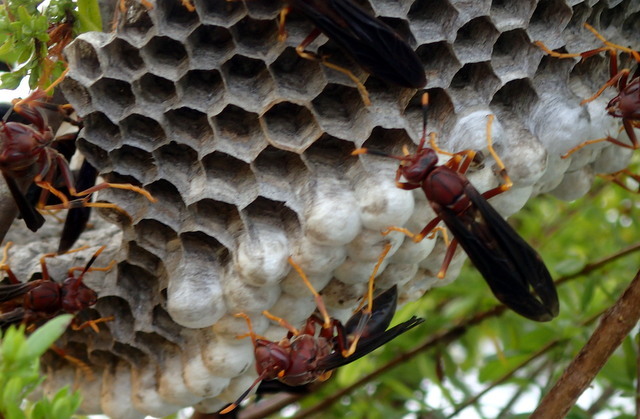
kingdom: Animalia
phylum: Arthropoda
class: Insecta
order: Hymenoptera
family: Eumenidae
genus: Polistes
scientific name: Polistes annularis
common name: Ringed paper wasp
